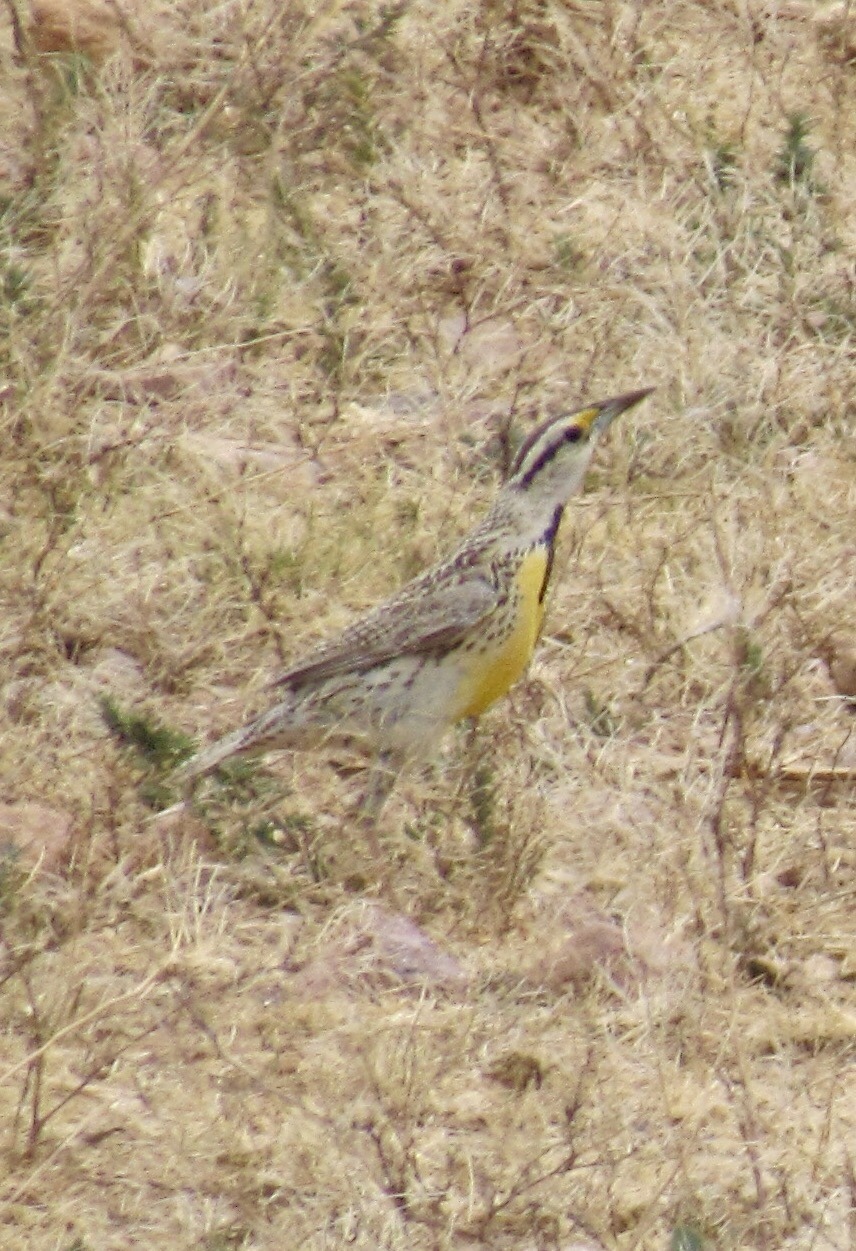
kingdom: Animalia
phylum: Chordata
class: Aves
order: Passeriformes
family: Icteridae
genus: Sturnella
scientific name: Sturnella lilianae
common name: Lilian's meadowlark
